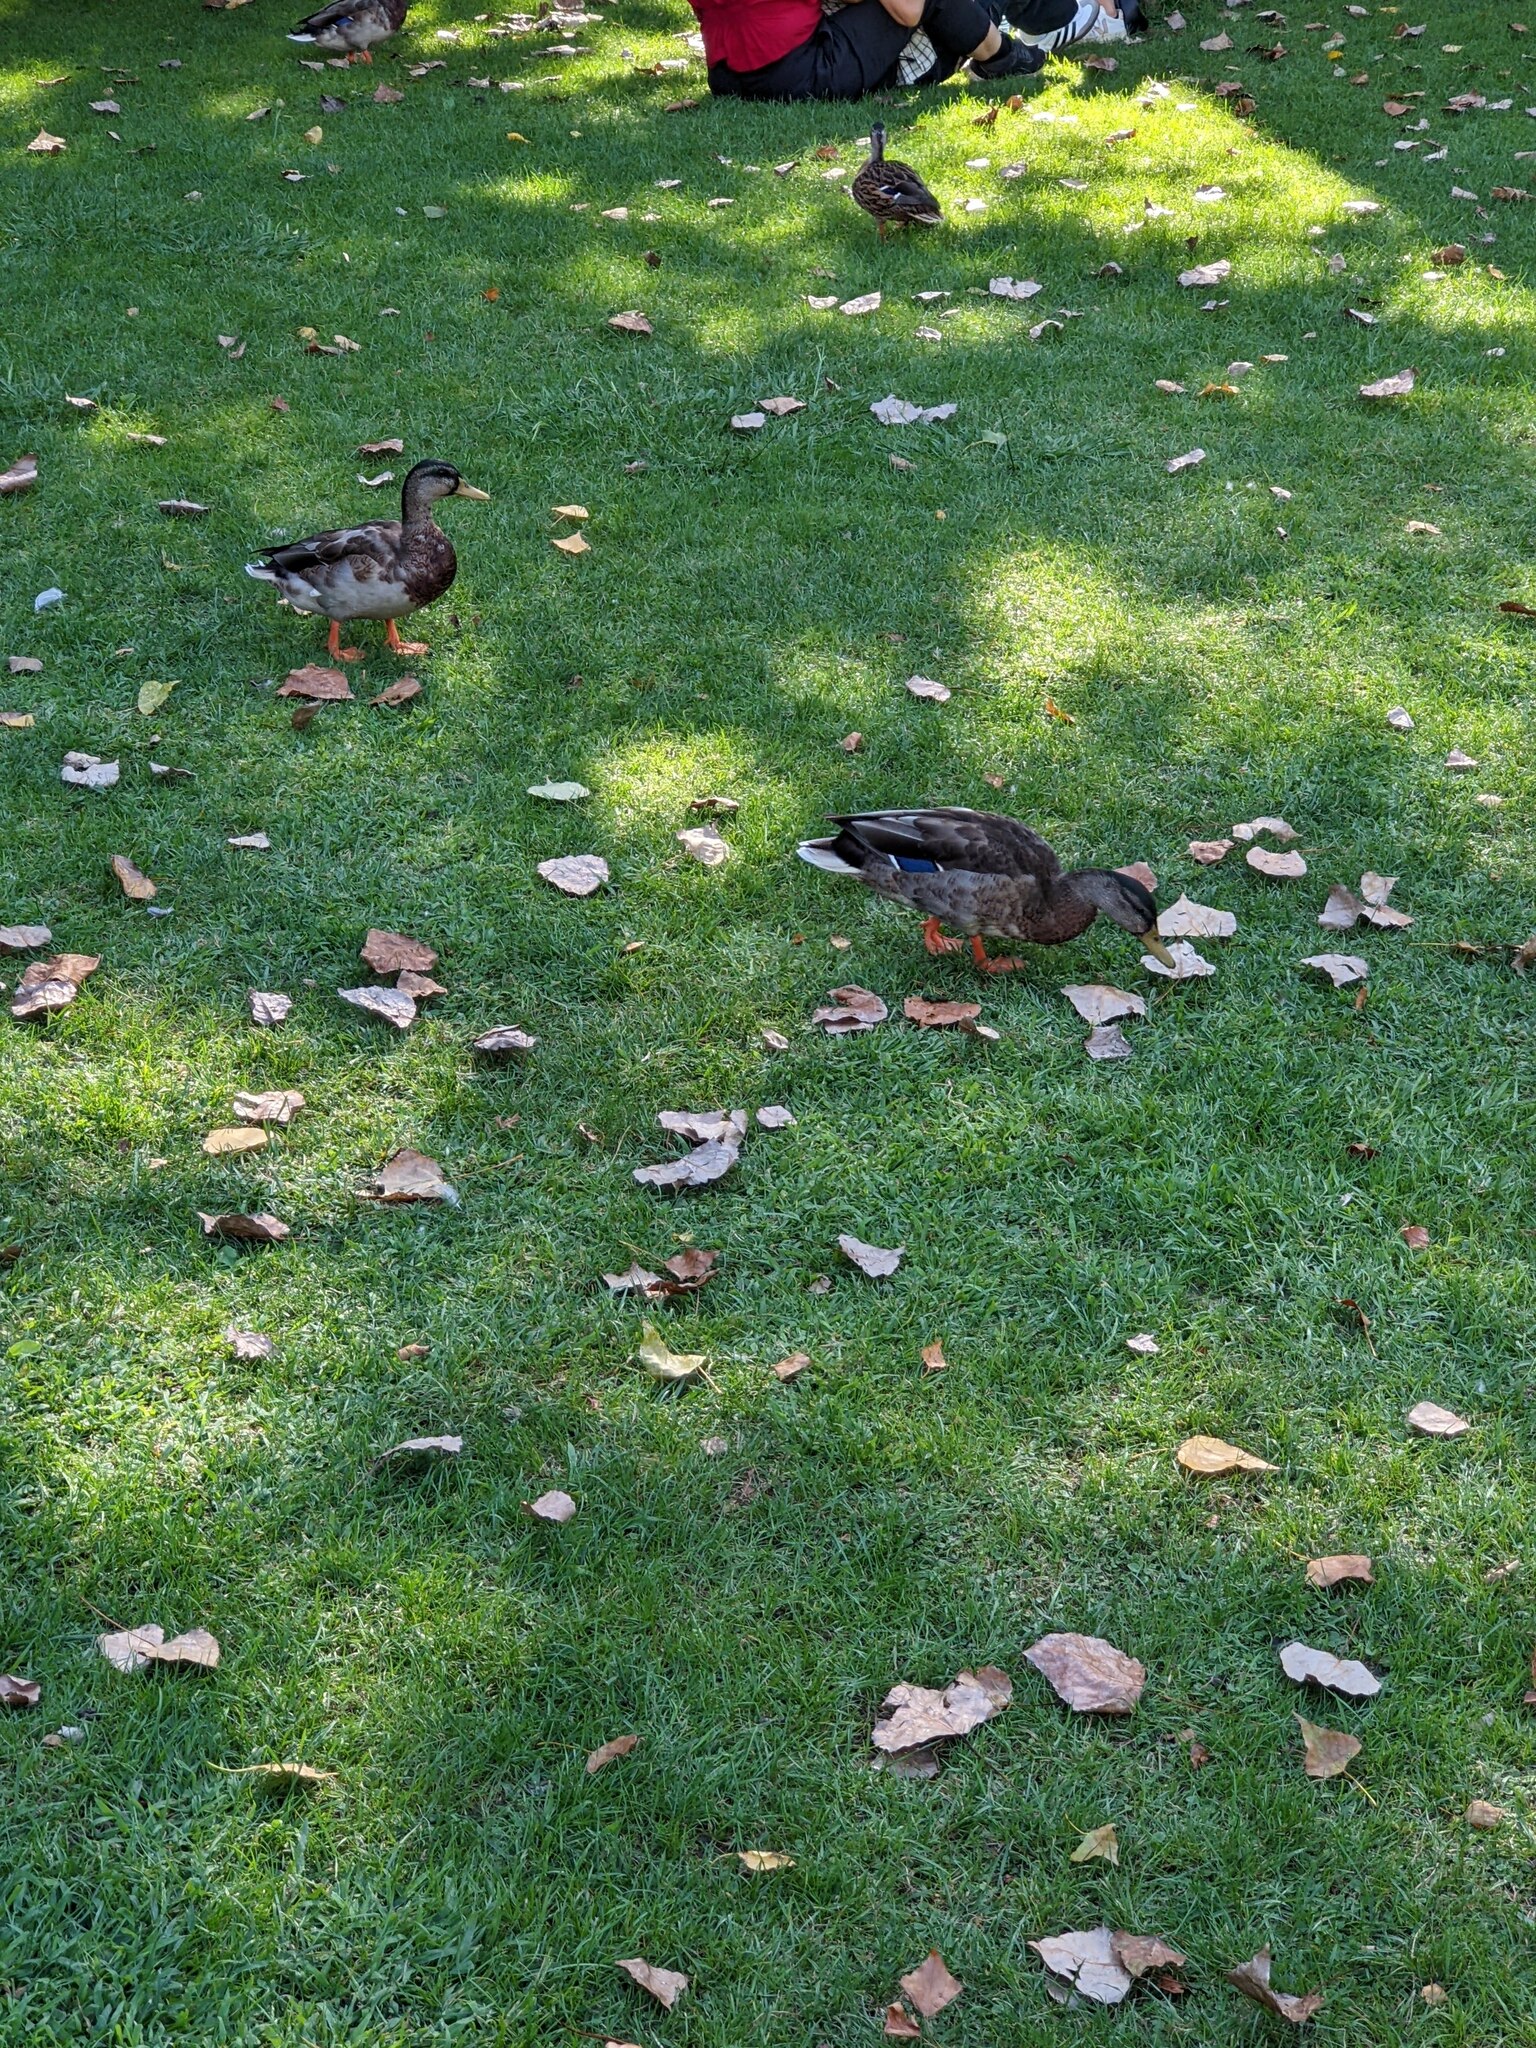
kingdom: Animalia
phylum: Chordata
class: Aves
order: Anseriformes
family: Anatidae
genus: Anas
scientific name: Anas platyrhynchos
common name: Mallard
